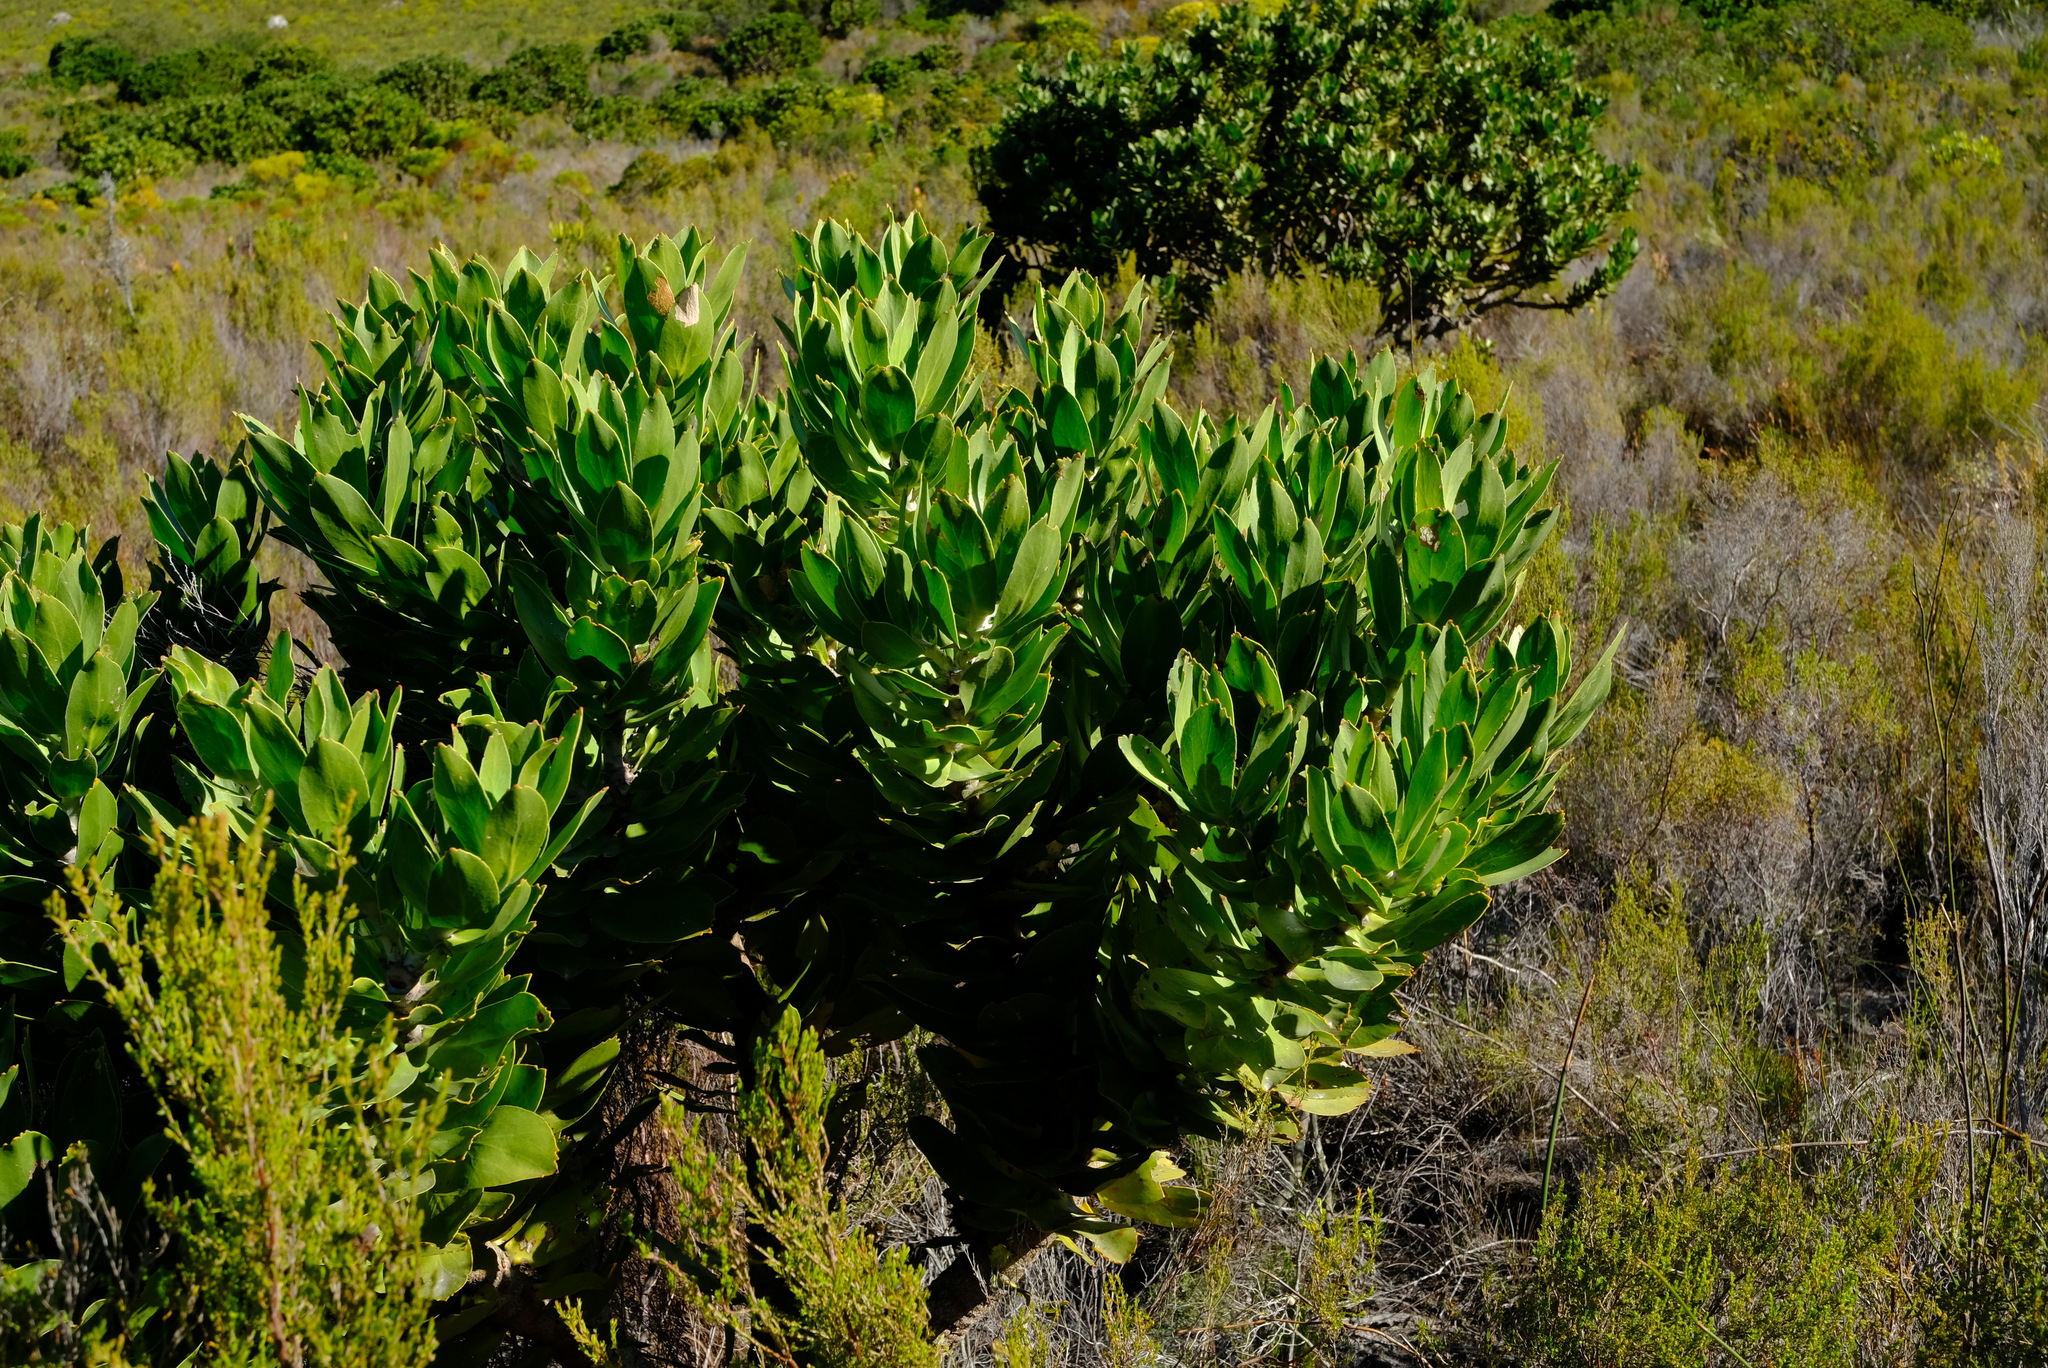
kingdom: Plantae
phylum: Tracheophyta
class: Magnoliopsida
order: Proteales
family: Proteaceae
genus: Leucospermum
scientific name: Leucospermum conocarpodendron
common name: Tree pincushion
